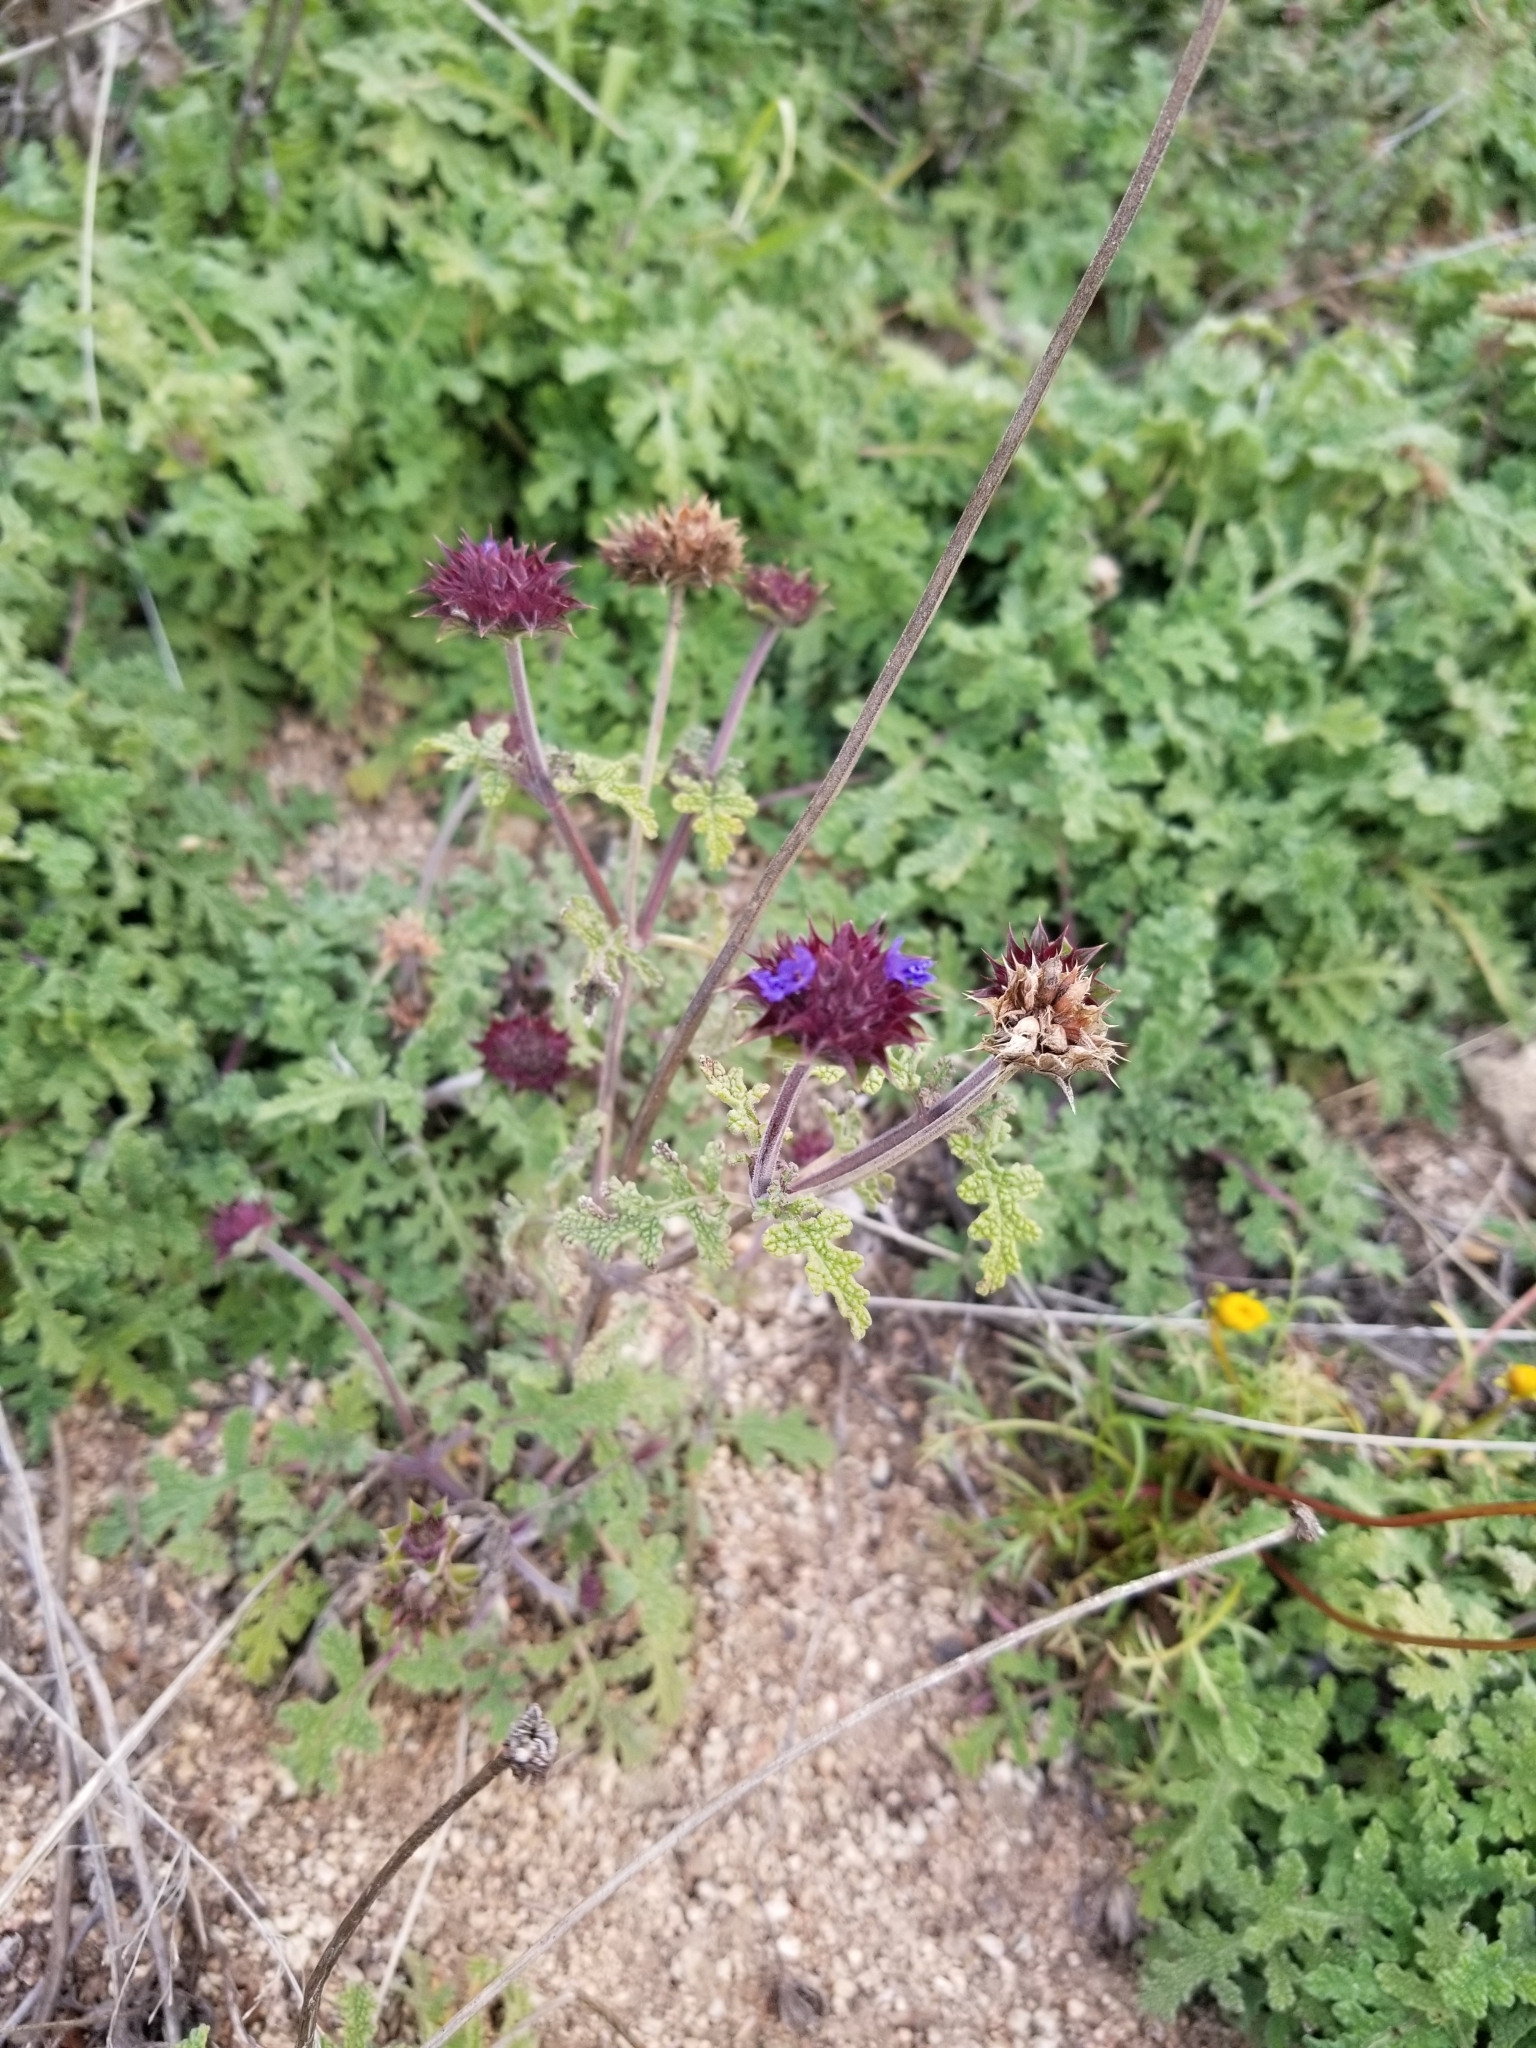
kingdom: Plantae
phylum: Tracheophyta
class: Magnoliopsida
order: Lamiales
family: Lamiaceae
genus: Salvia
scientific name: Salvia columbariae
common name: Chia
